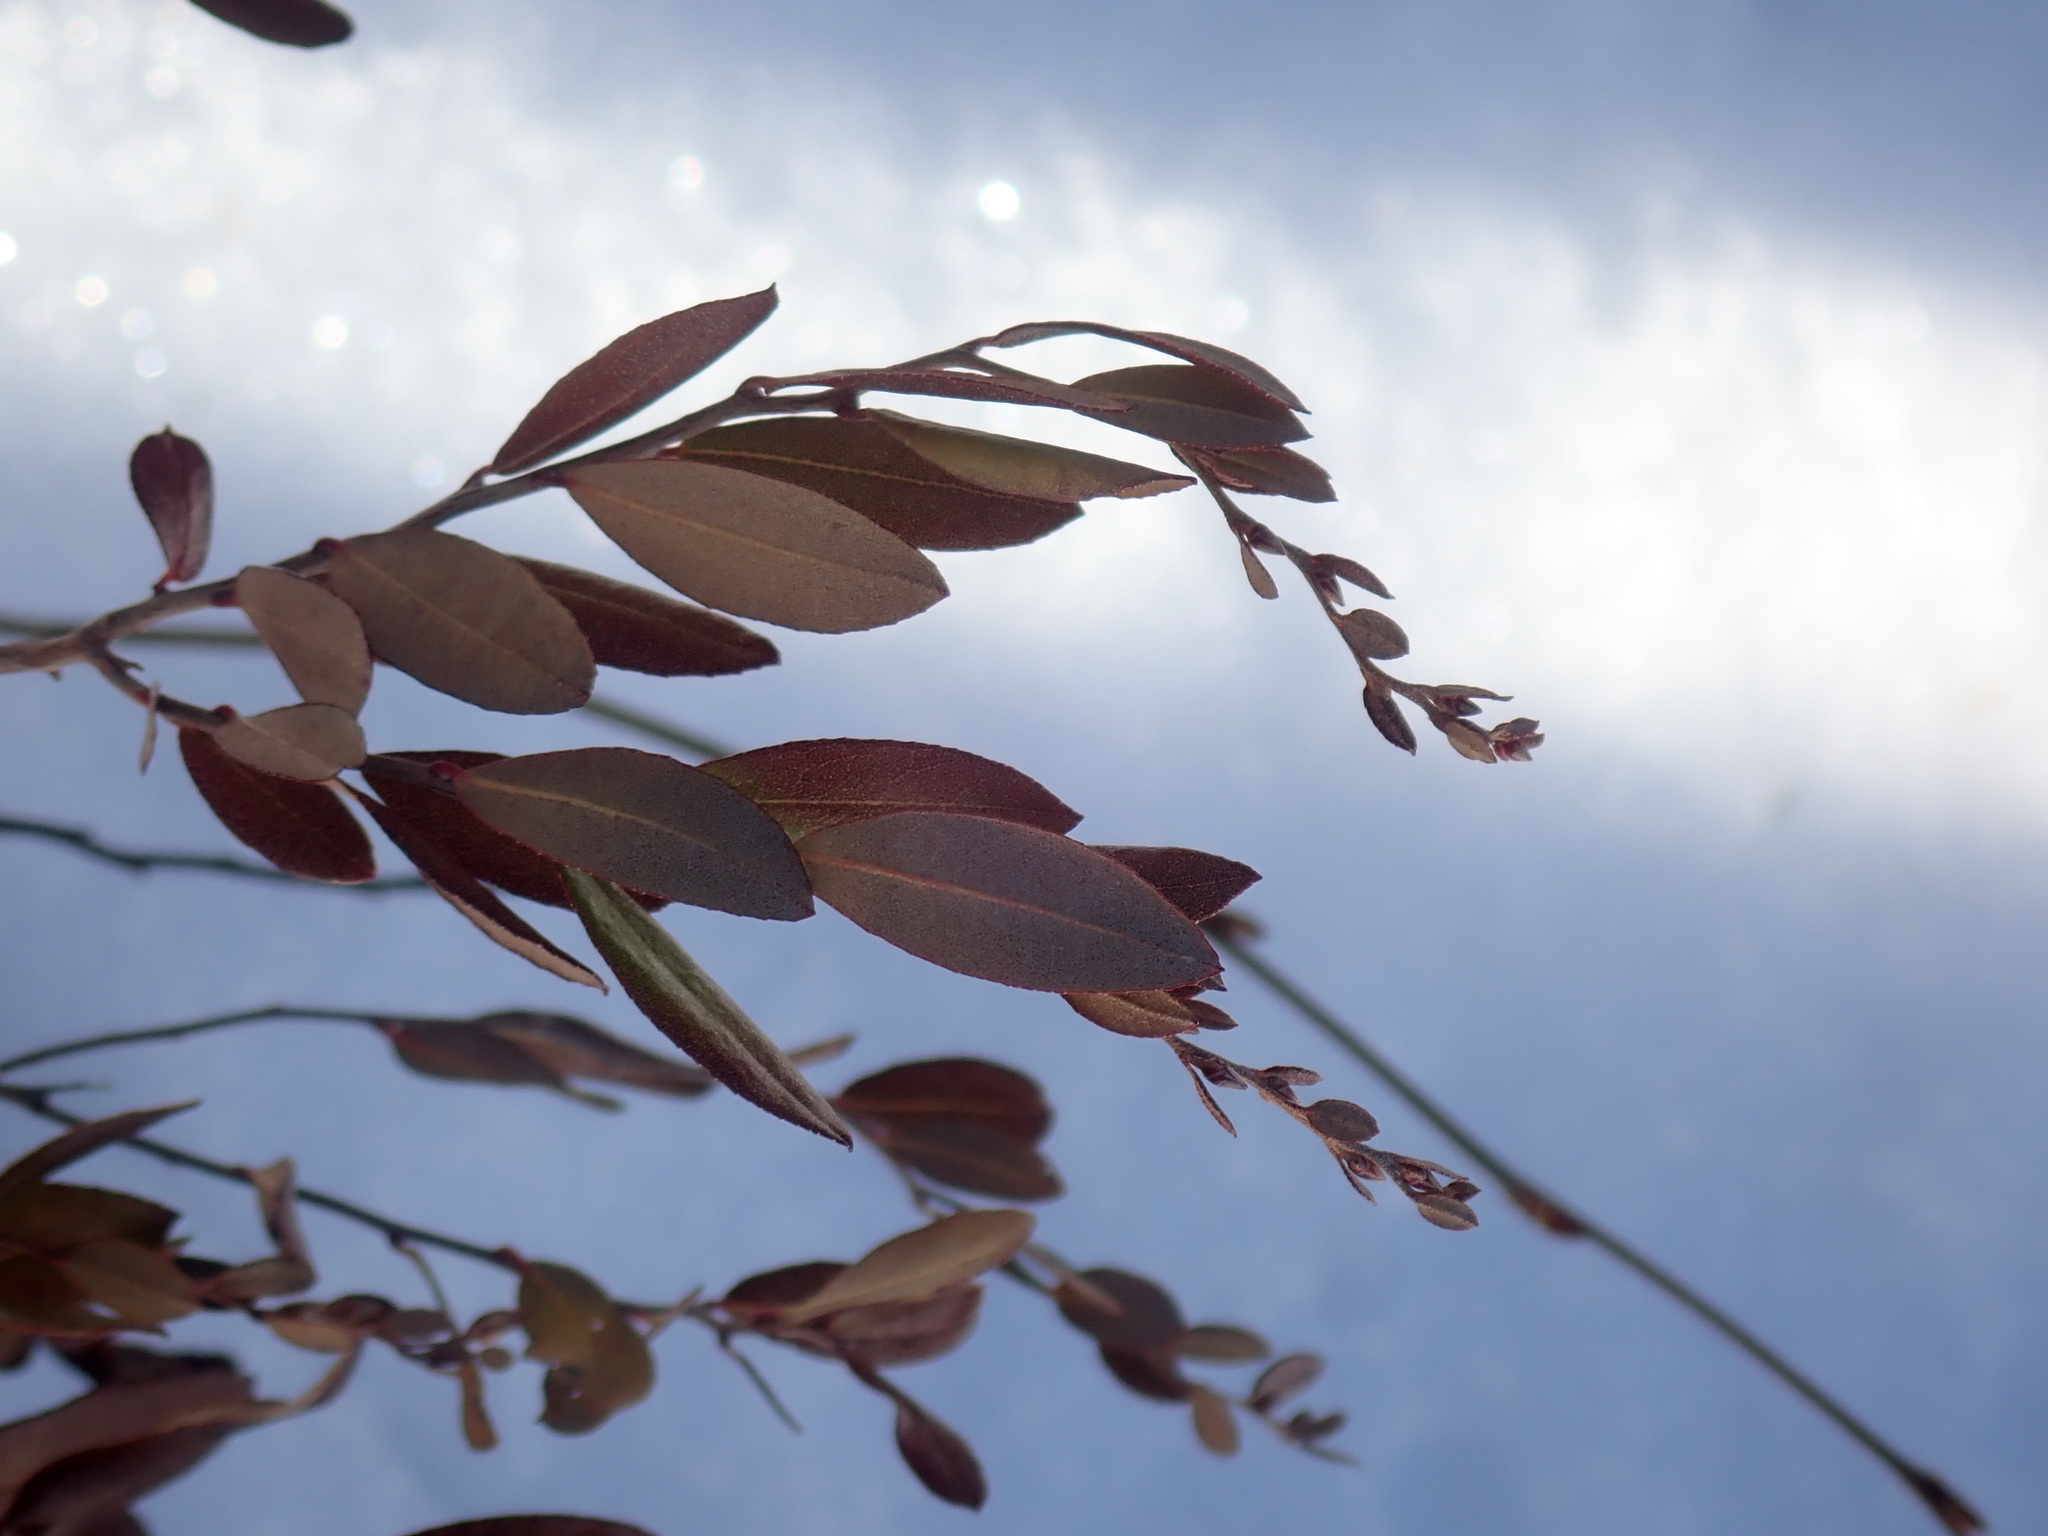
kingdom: Plantae
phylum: Tracheophyta
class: Magnoliopsida
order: Ericales
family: Ericaceae
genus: Chamaedaphne
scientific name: Chamaedaphne calyculata
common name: Leatherleaf
